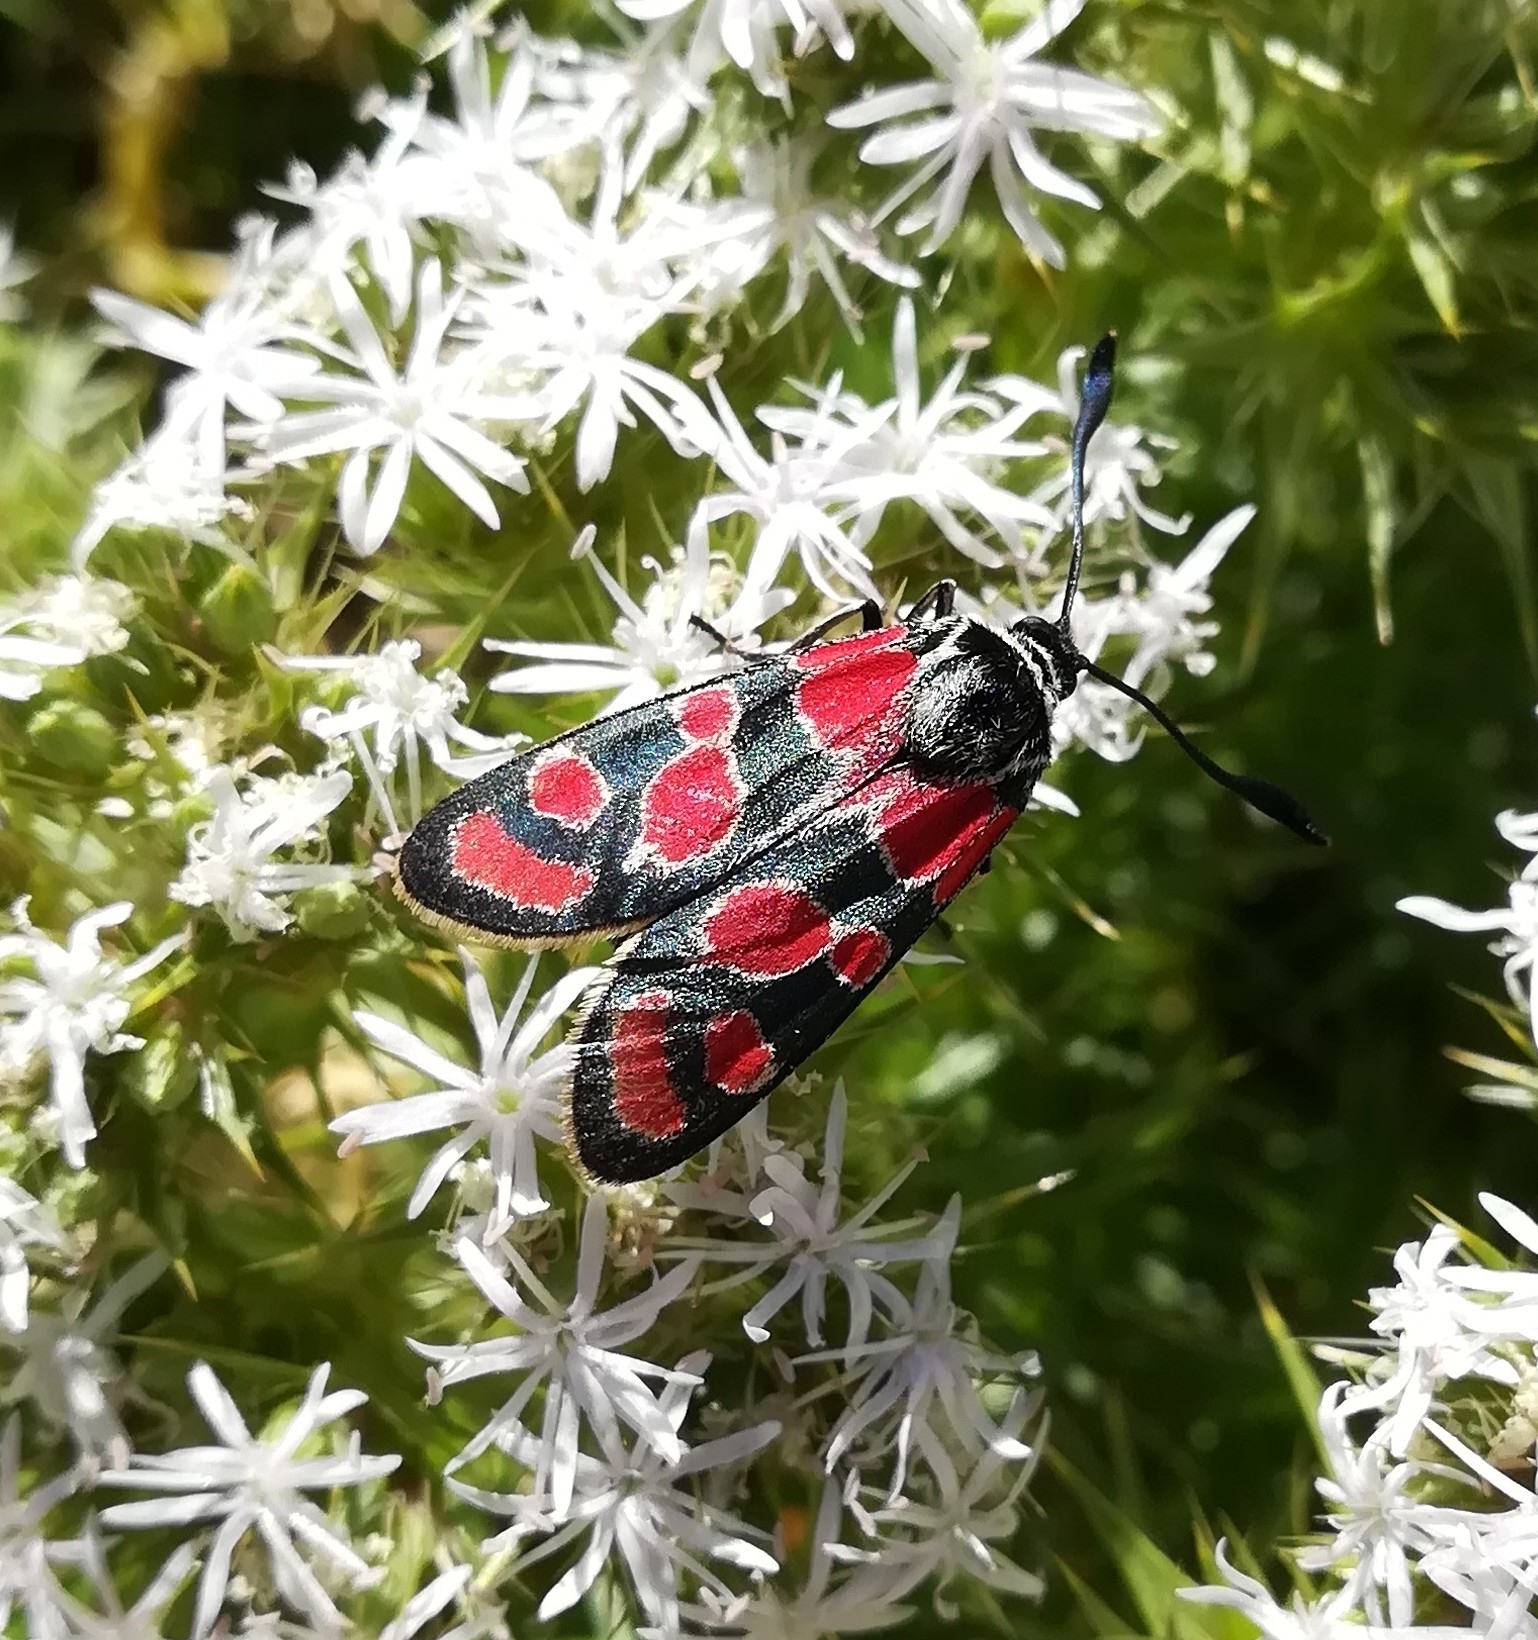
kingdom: Animalia
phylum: Arthropoda
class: Insecta
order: Lepidoptera
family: Zygaenidae
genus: Zygaena
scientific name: Zygaena carniolica
